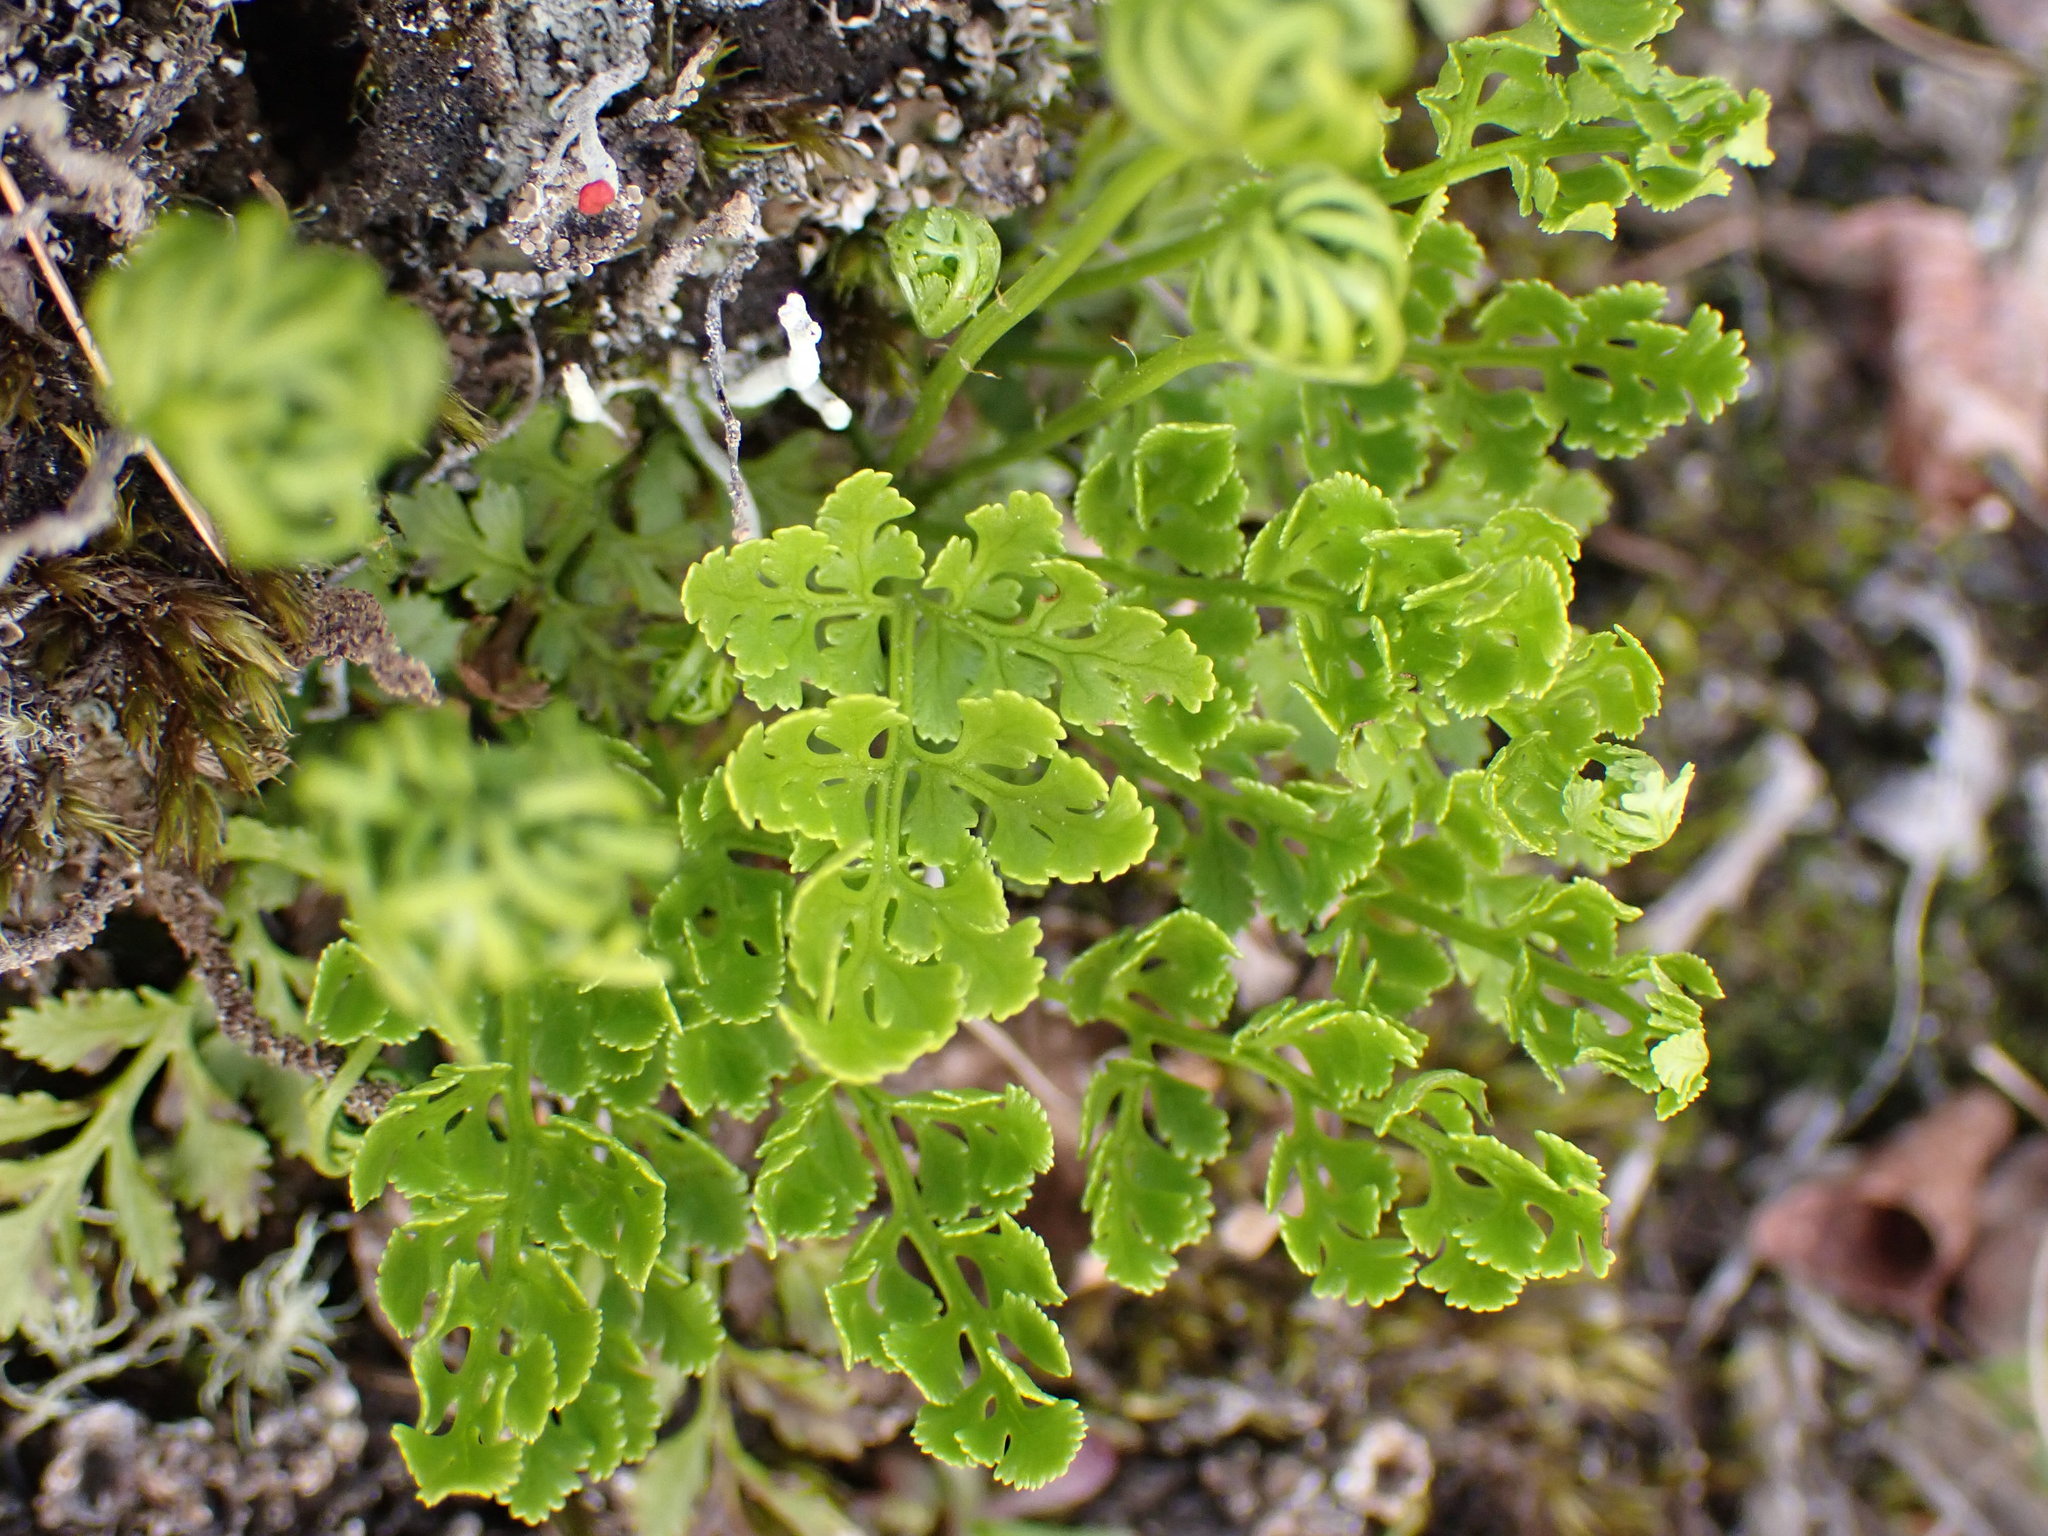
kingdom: Plantae
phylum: Tracheophyta
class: Polypodiopsida
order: Polypodiales
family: Pteridaceae
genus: Cryptogramma
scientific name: Cryptogramma acrostichoides
